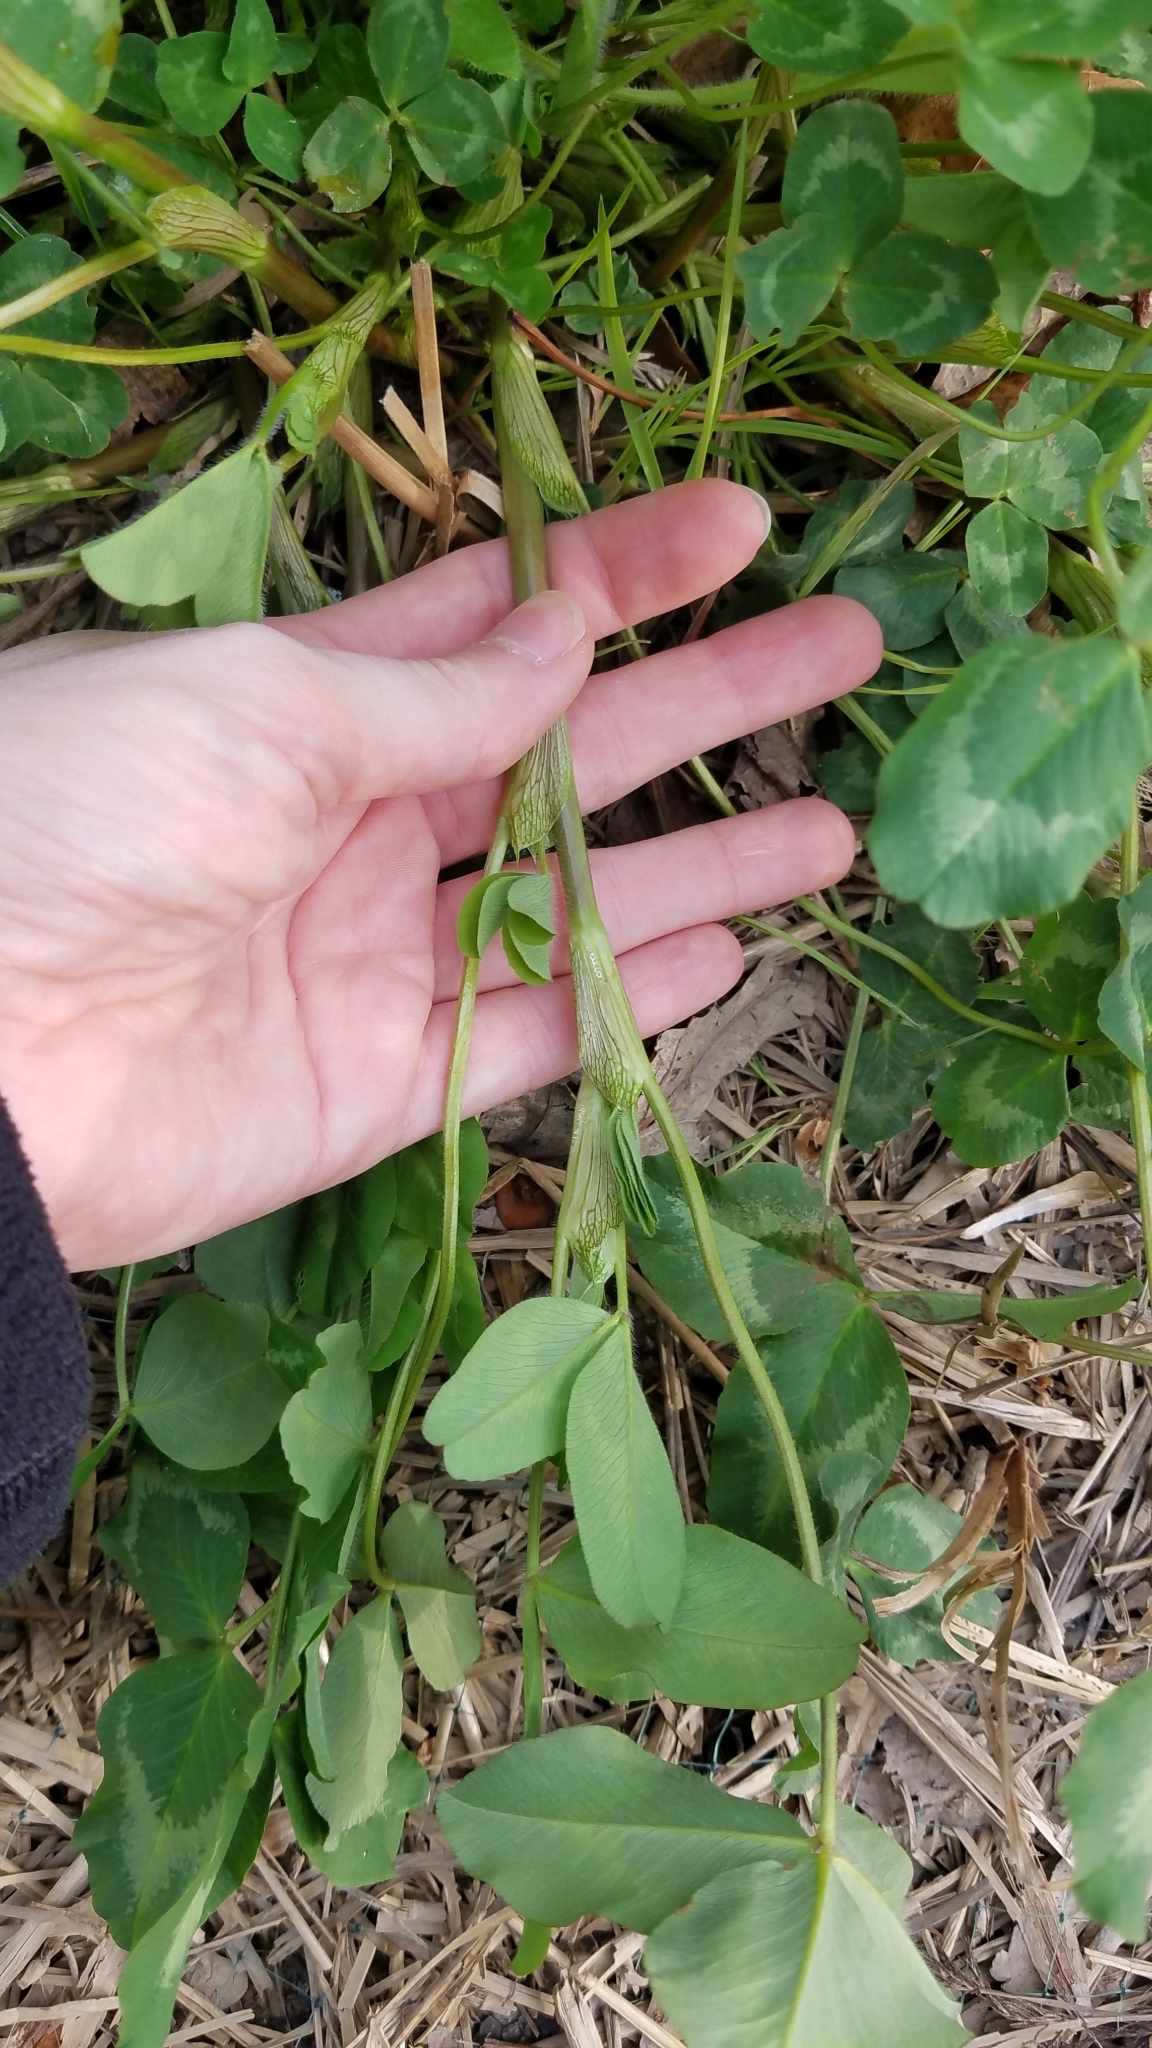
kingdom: Plantae
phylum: Tracheophyta
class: Magnoliopsida
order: Fabales
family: Fabaceae
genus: Trifolium
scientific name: Trifolium pratense
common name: Red clover
